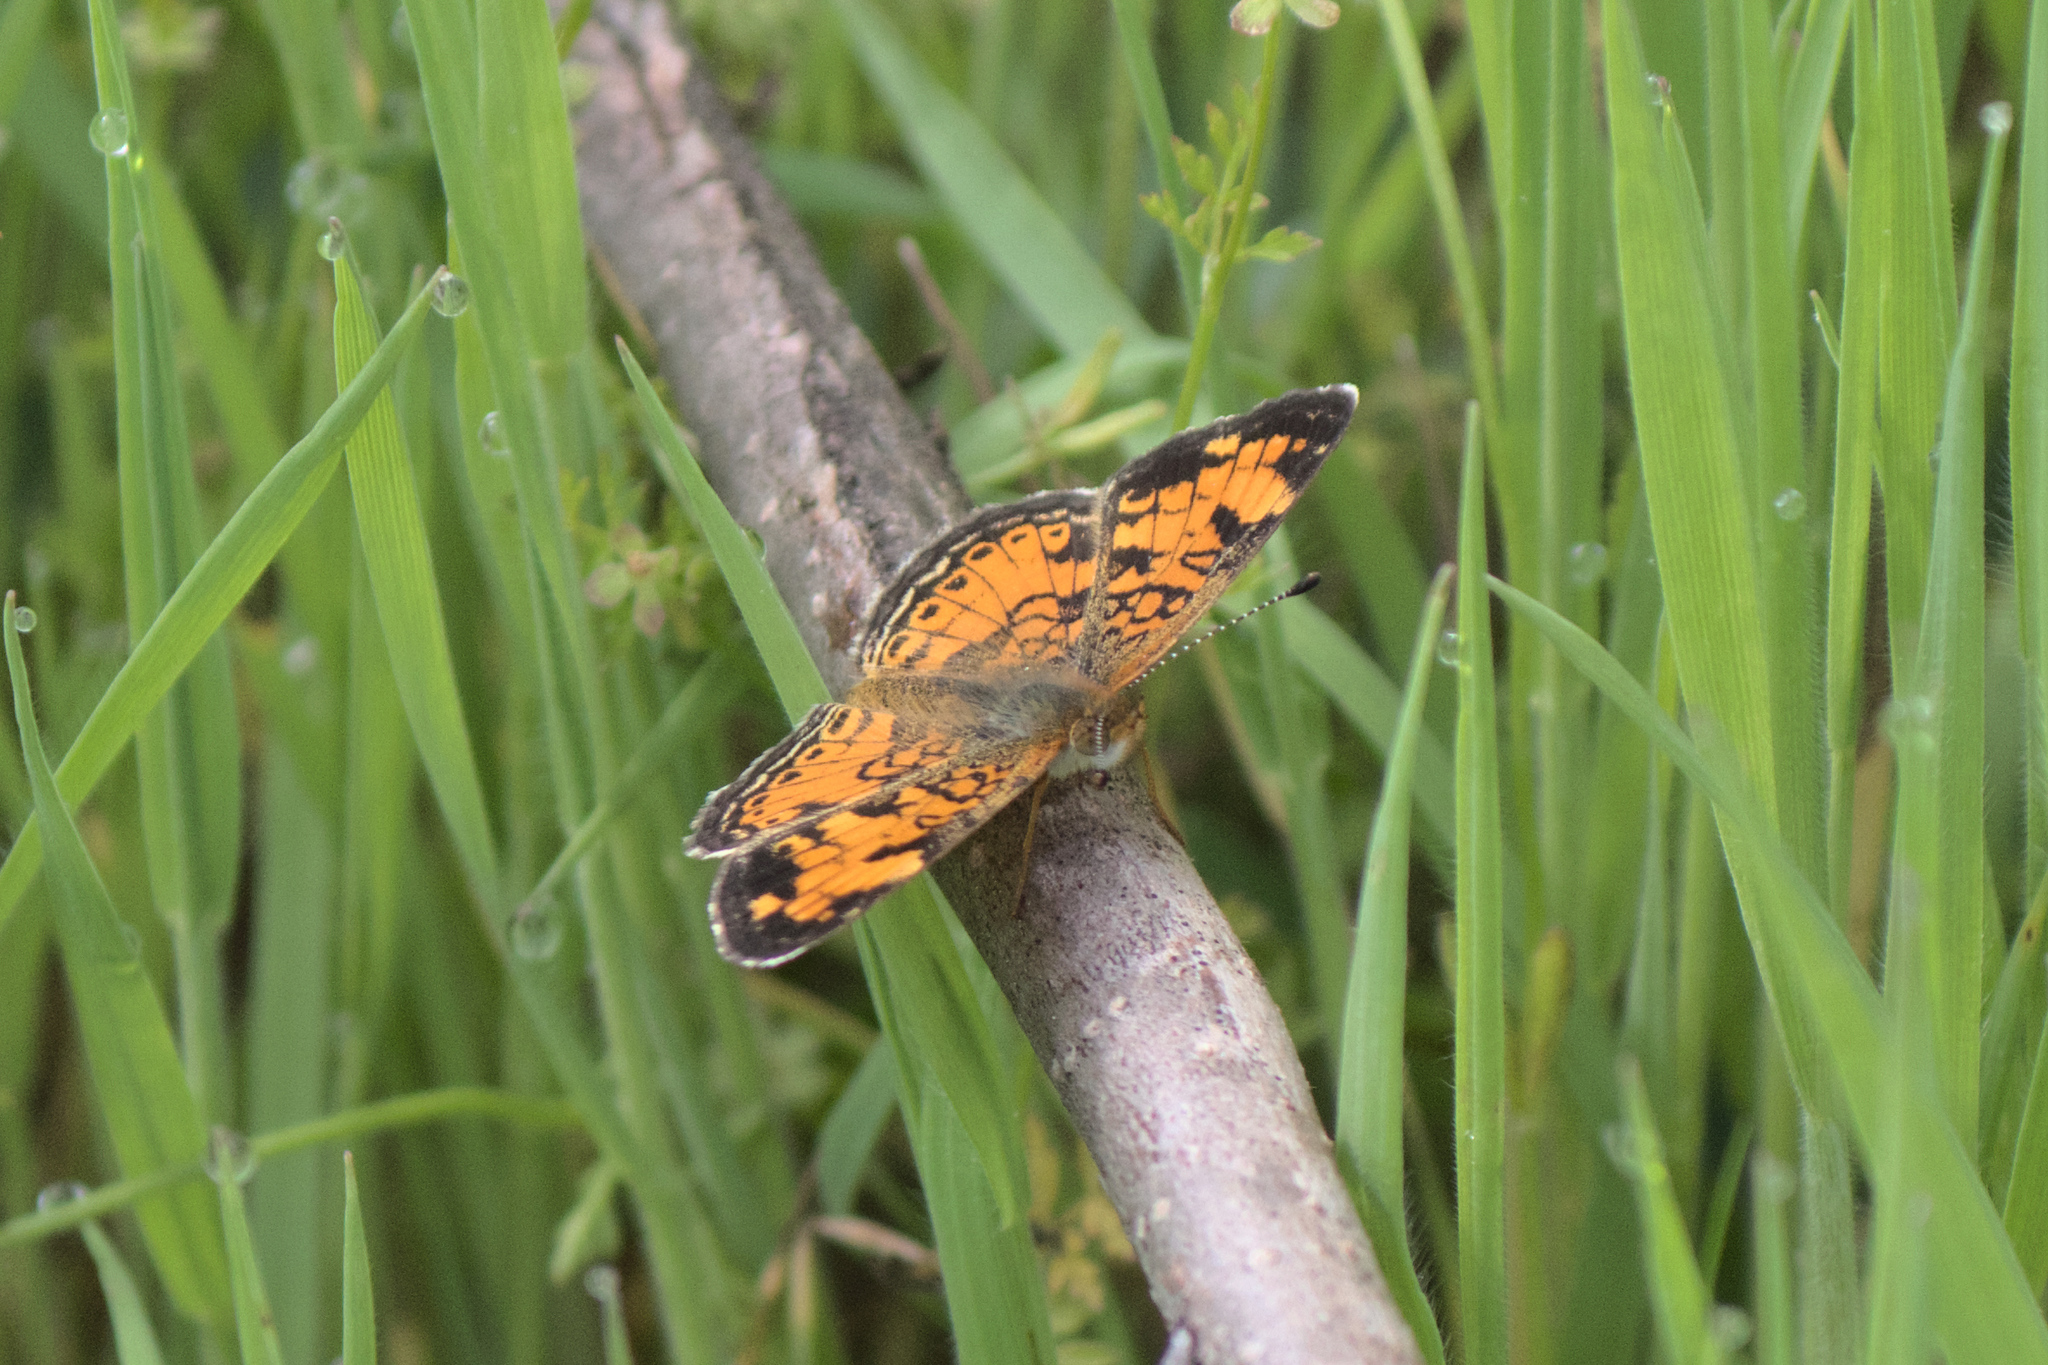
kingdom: Animalia
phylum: Arthropoda
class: Insecta
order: Lepidoptera
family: Nymphalidae
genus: Phyciodes
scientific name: Phyciodes tharos
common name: Pearl crescent
